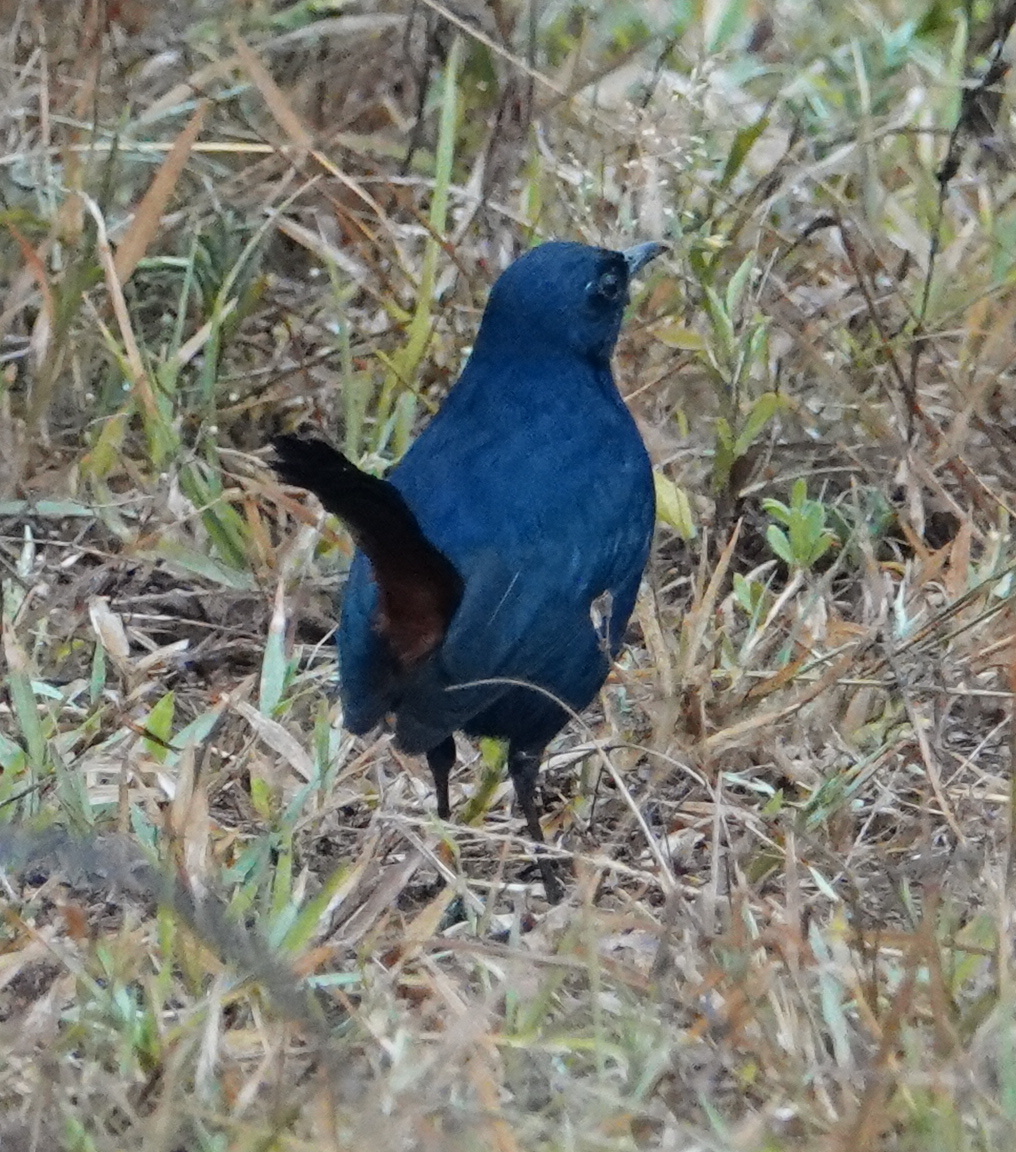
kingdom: Animalia
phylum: Chordata
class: Aves
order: Passeriformes
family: Muscicapidae
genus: Saxicoloides
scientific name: Saxicoloides fulicatus
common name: Indian robin
